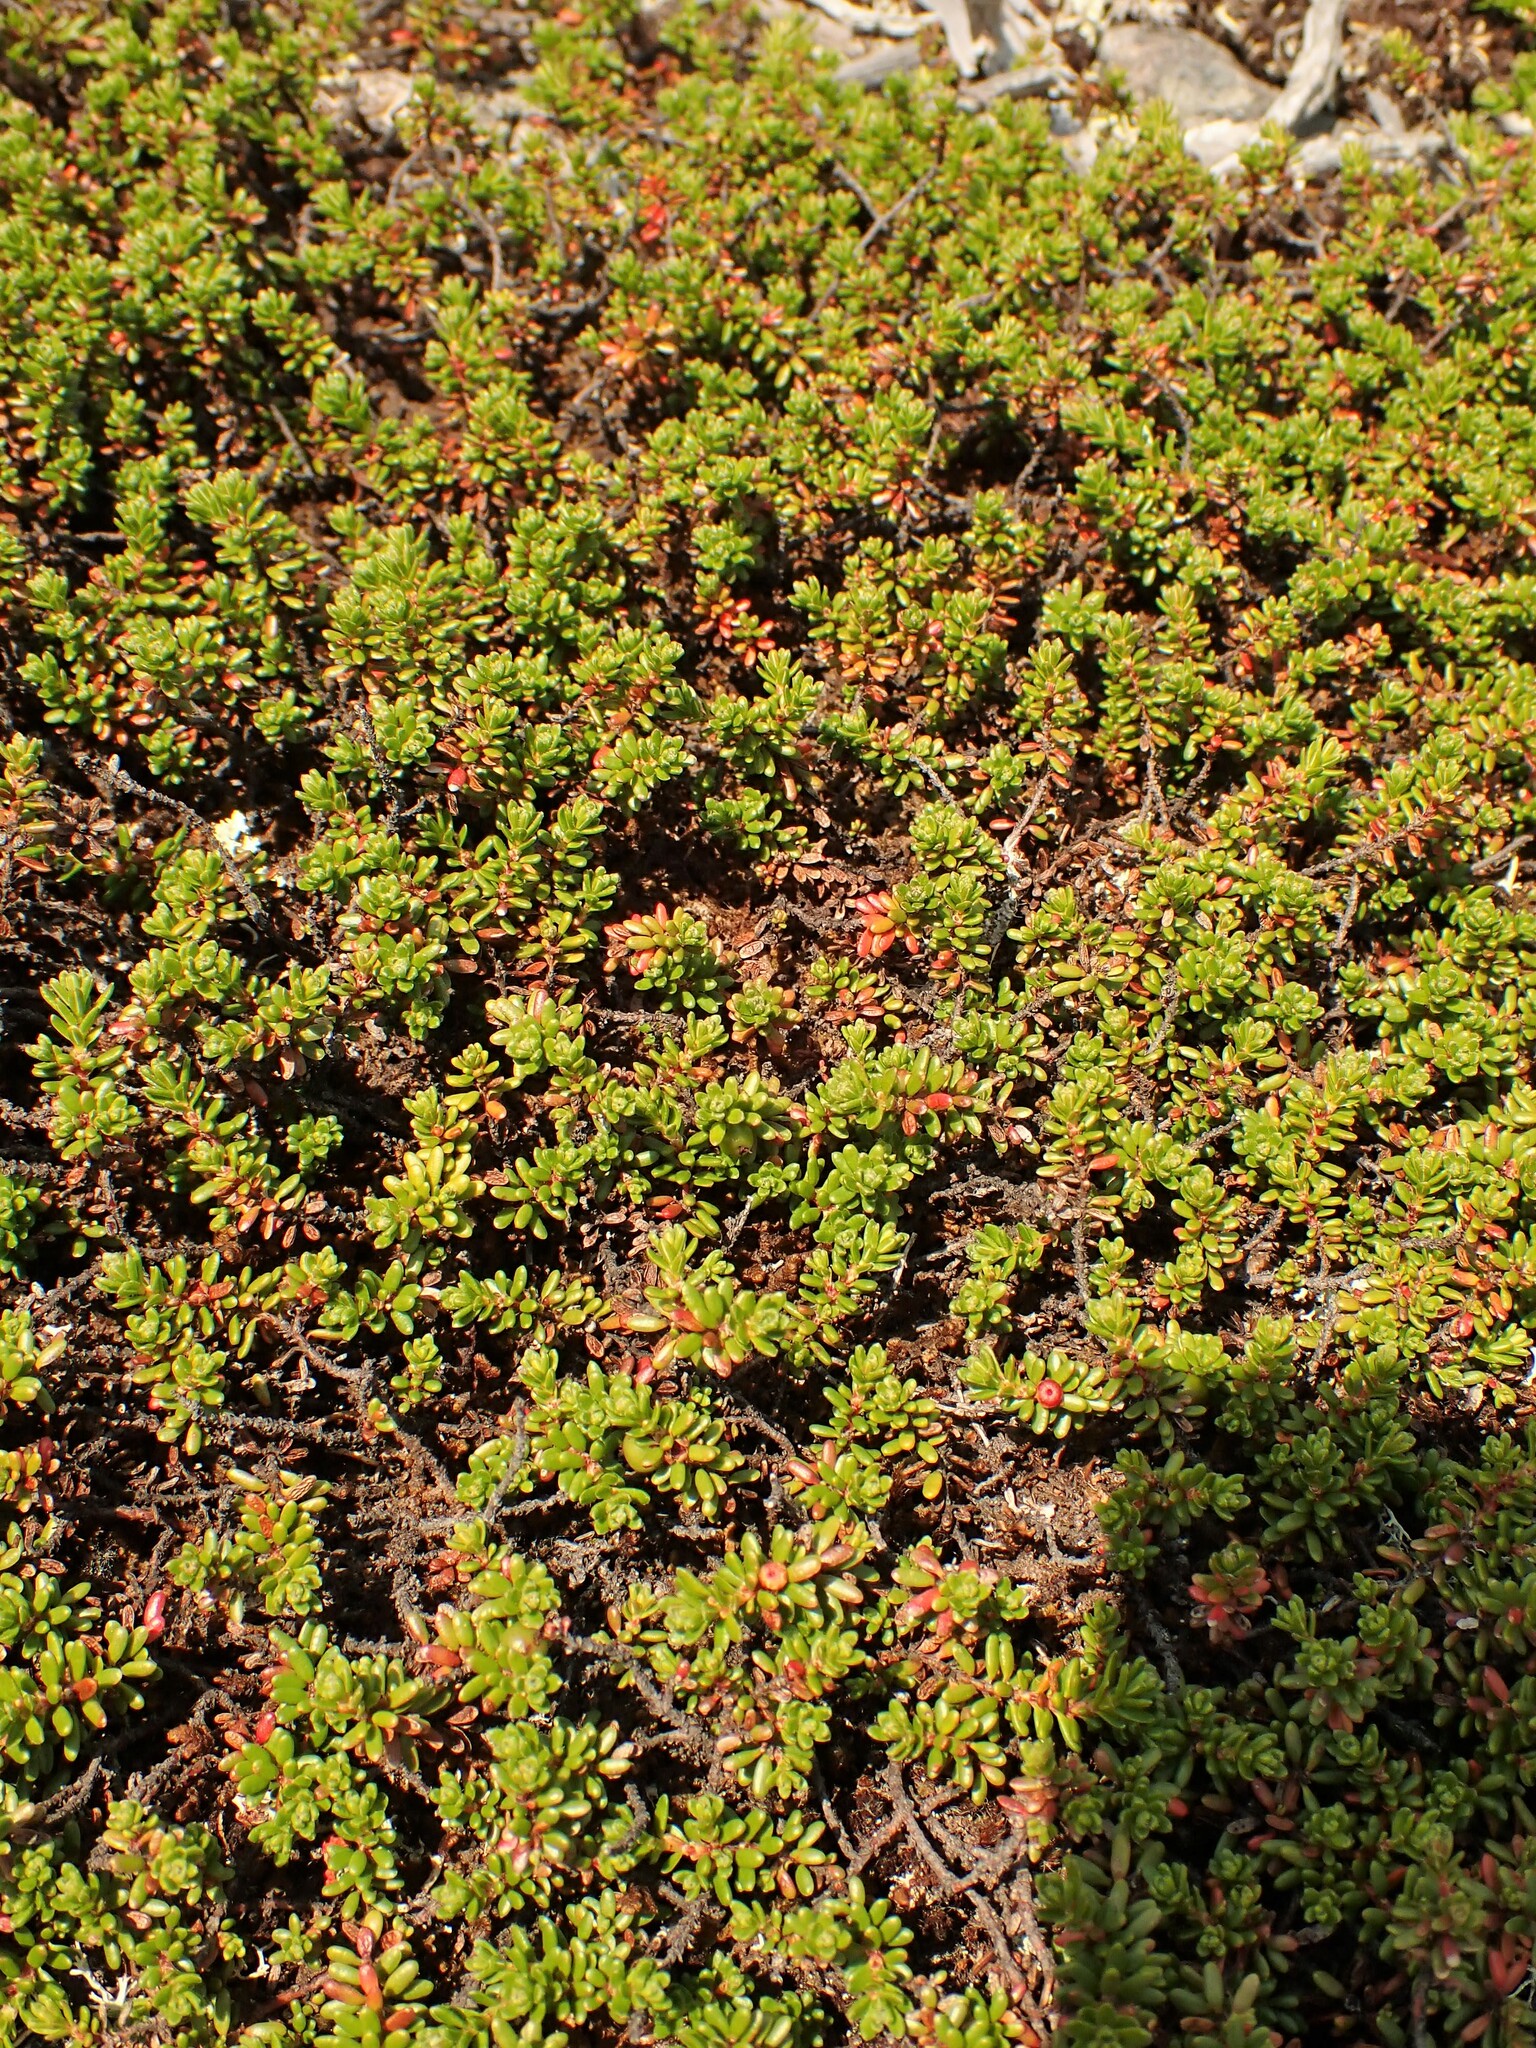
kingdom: Plantae
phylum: Tracheophyta
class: Magnoliopsida
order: Ericales
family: Ericaceae
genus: Empetrum
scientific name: Empetrum nigrum
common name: Black crowberry
